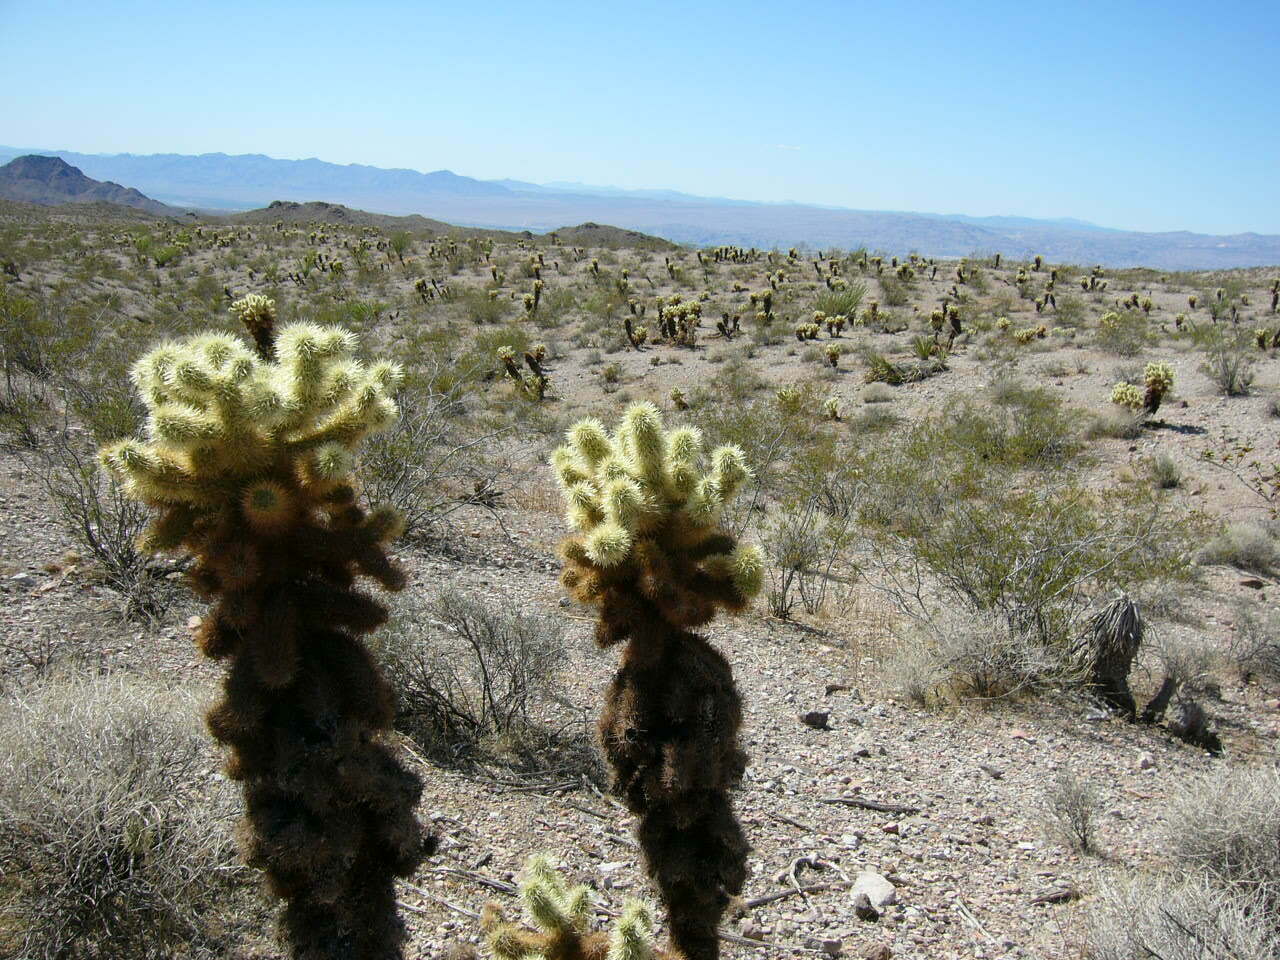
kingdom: Plantae
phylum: Tracheophyta
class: Magnoliopsida
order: Caryophyllales
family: Cactaceae
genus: Cylindropuntia
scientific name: Cylindropuntia fosbergii
